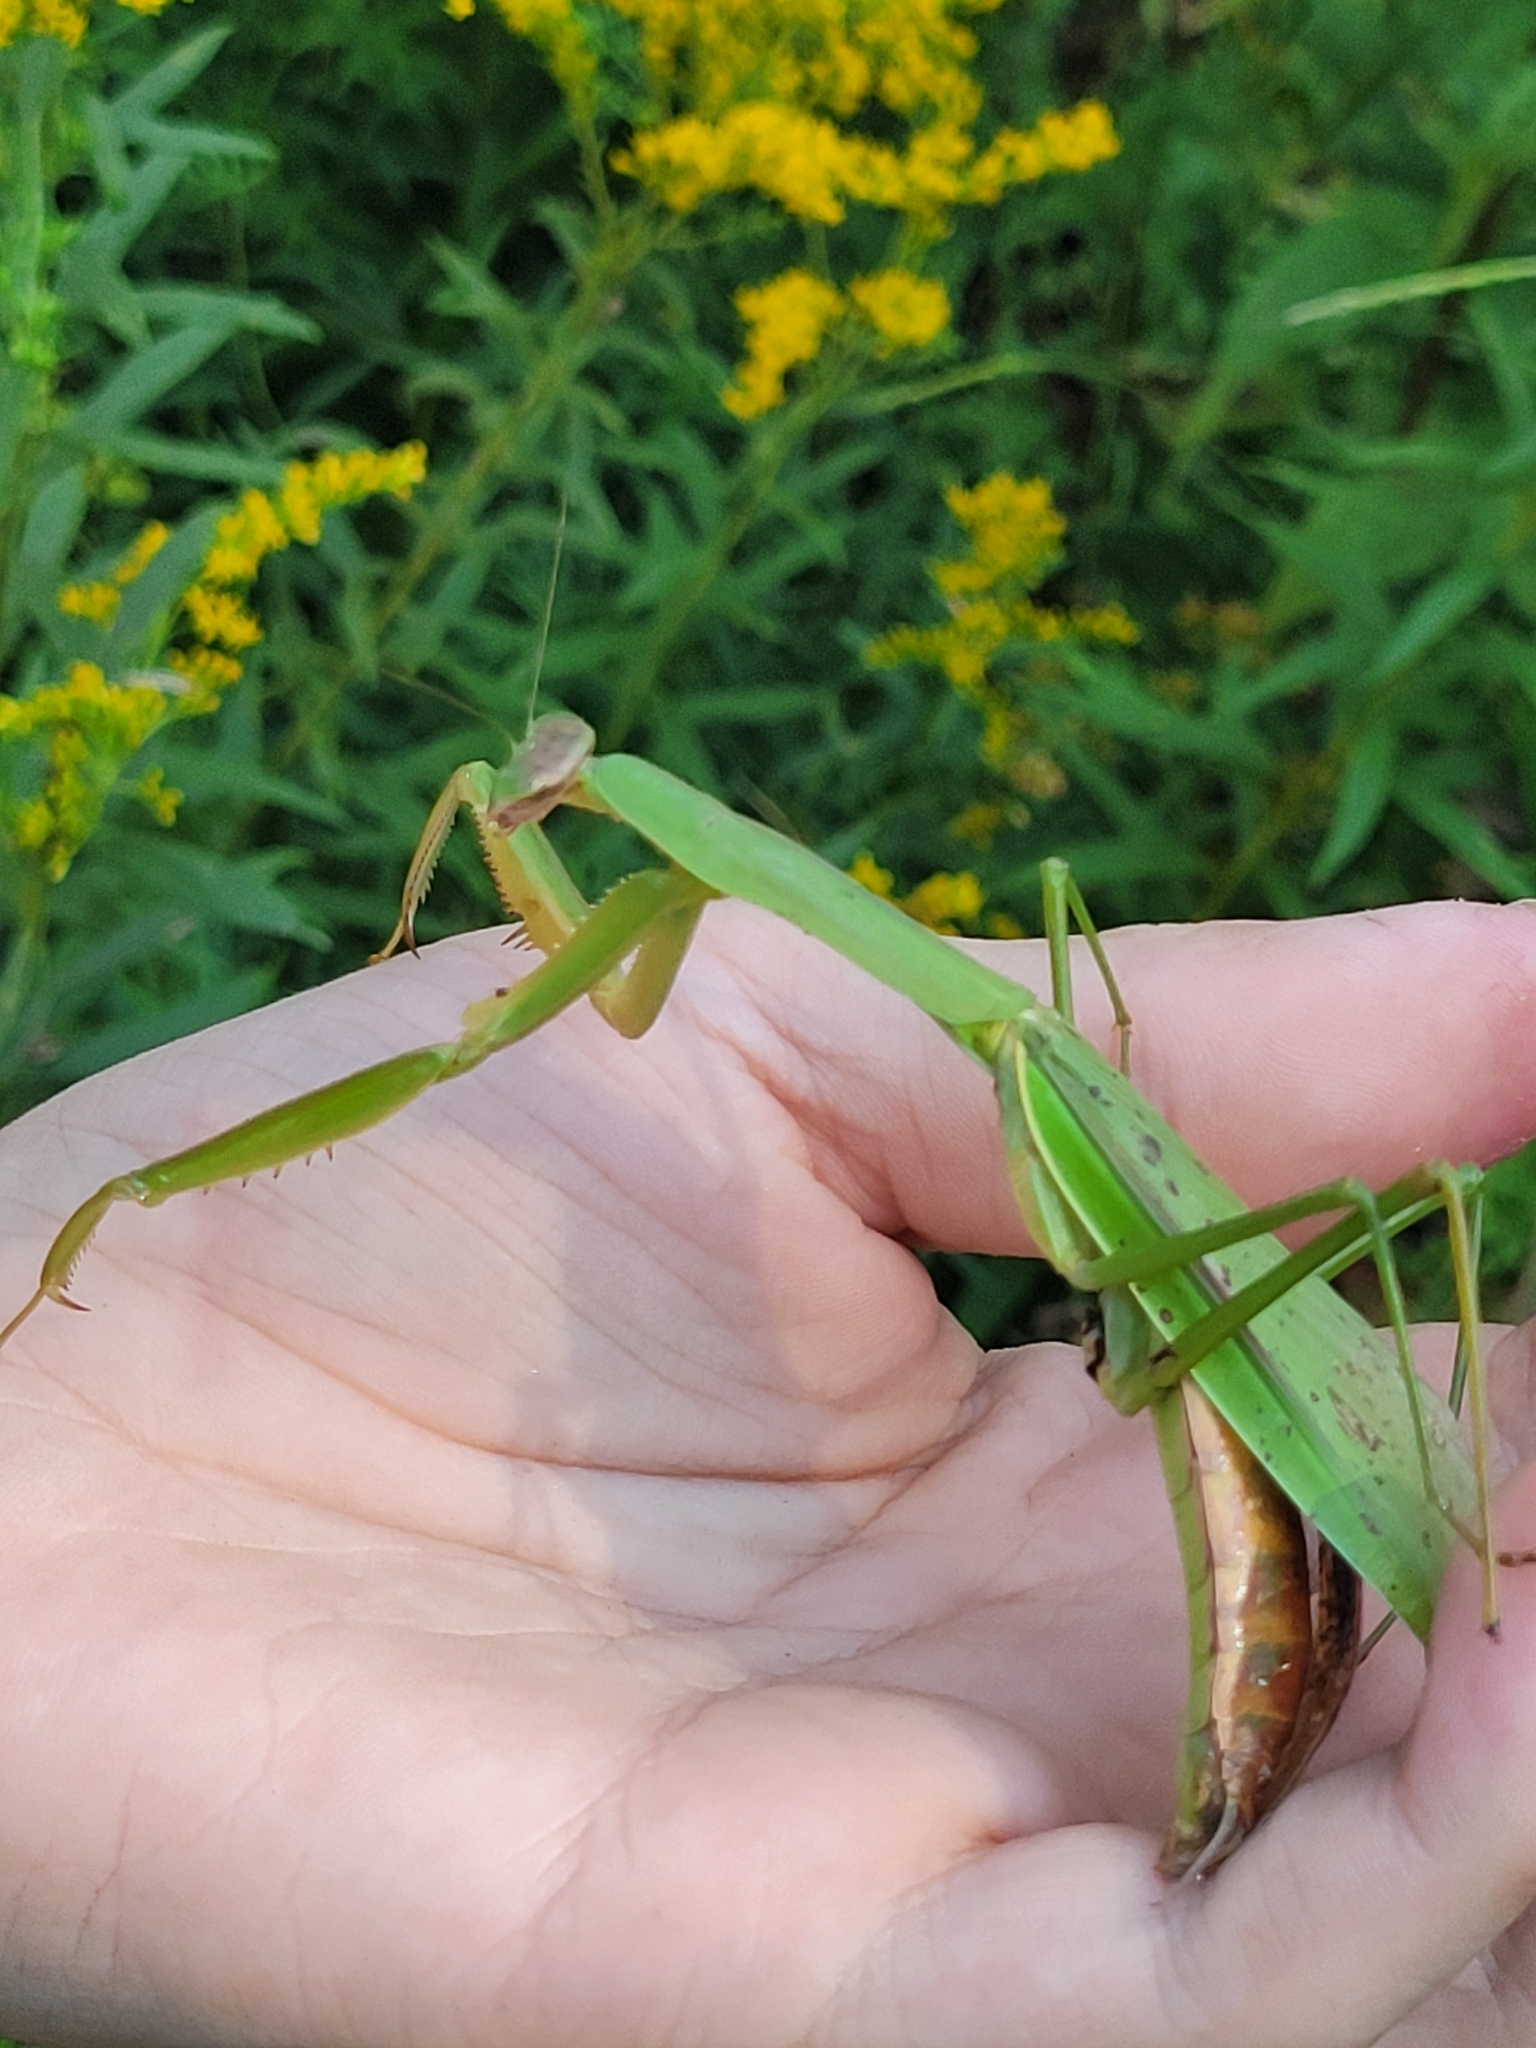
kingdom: Animalia
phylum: Arthropoda
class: Insecta
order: Mantodea
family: Mantidae
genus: Tenodera
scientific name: Tenodera sinensis
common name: Chinese mantis
